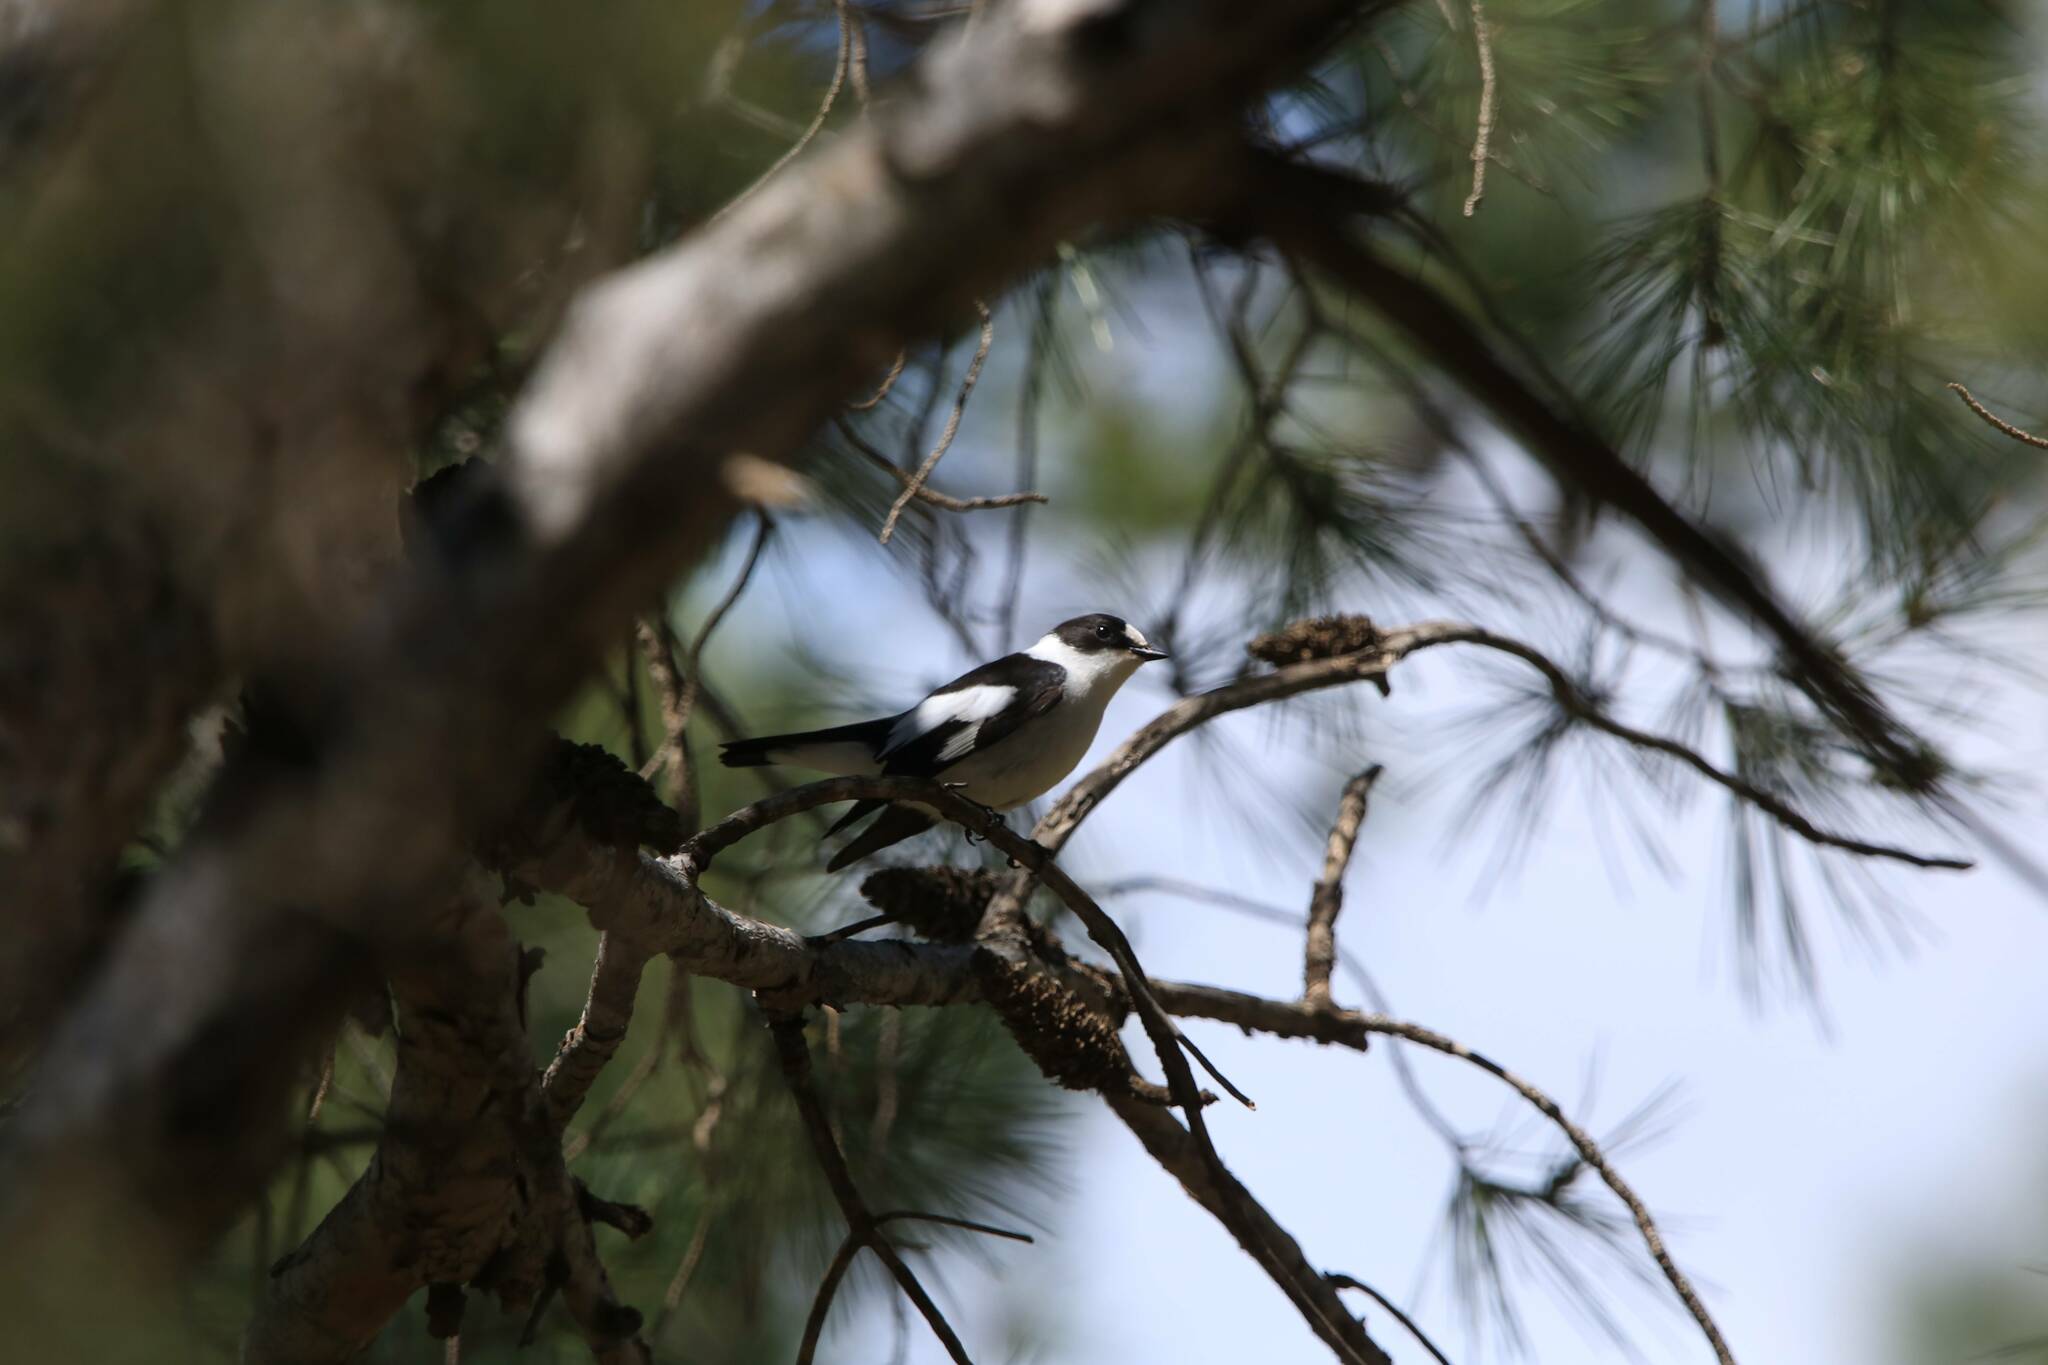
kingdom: Animalia
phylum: Chordata
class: Aves
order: Passeriformes
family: Muscicapidae
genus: Ficedula
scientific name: Ficedula albicollis
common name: Collared flycatcher
